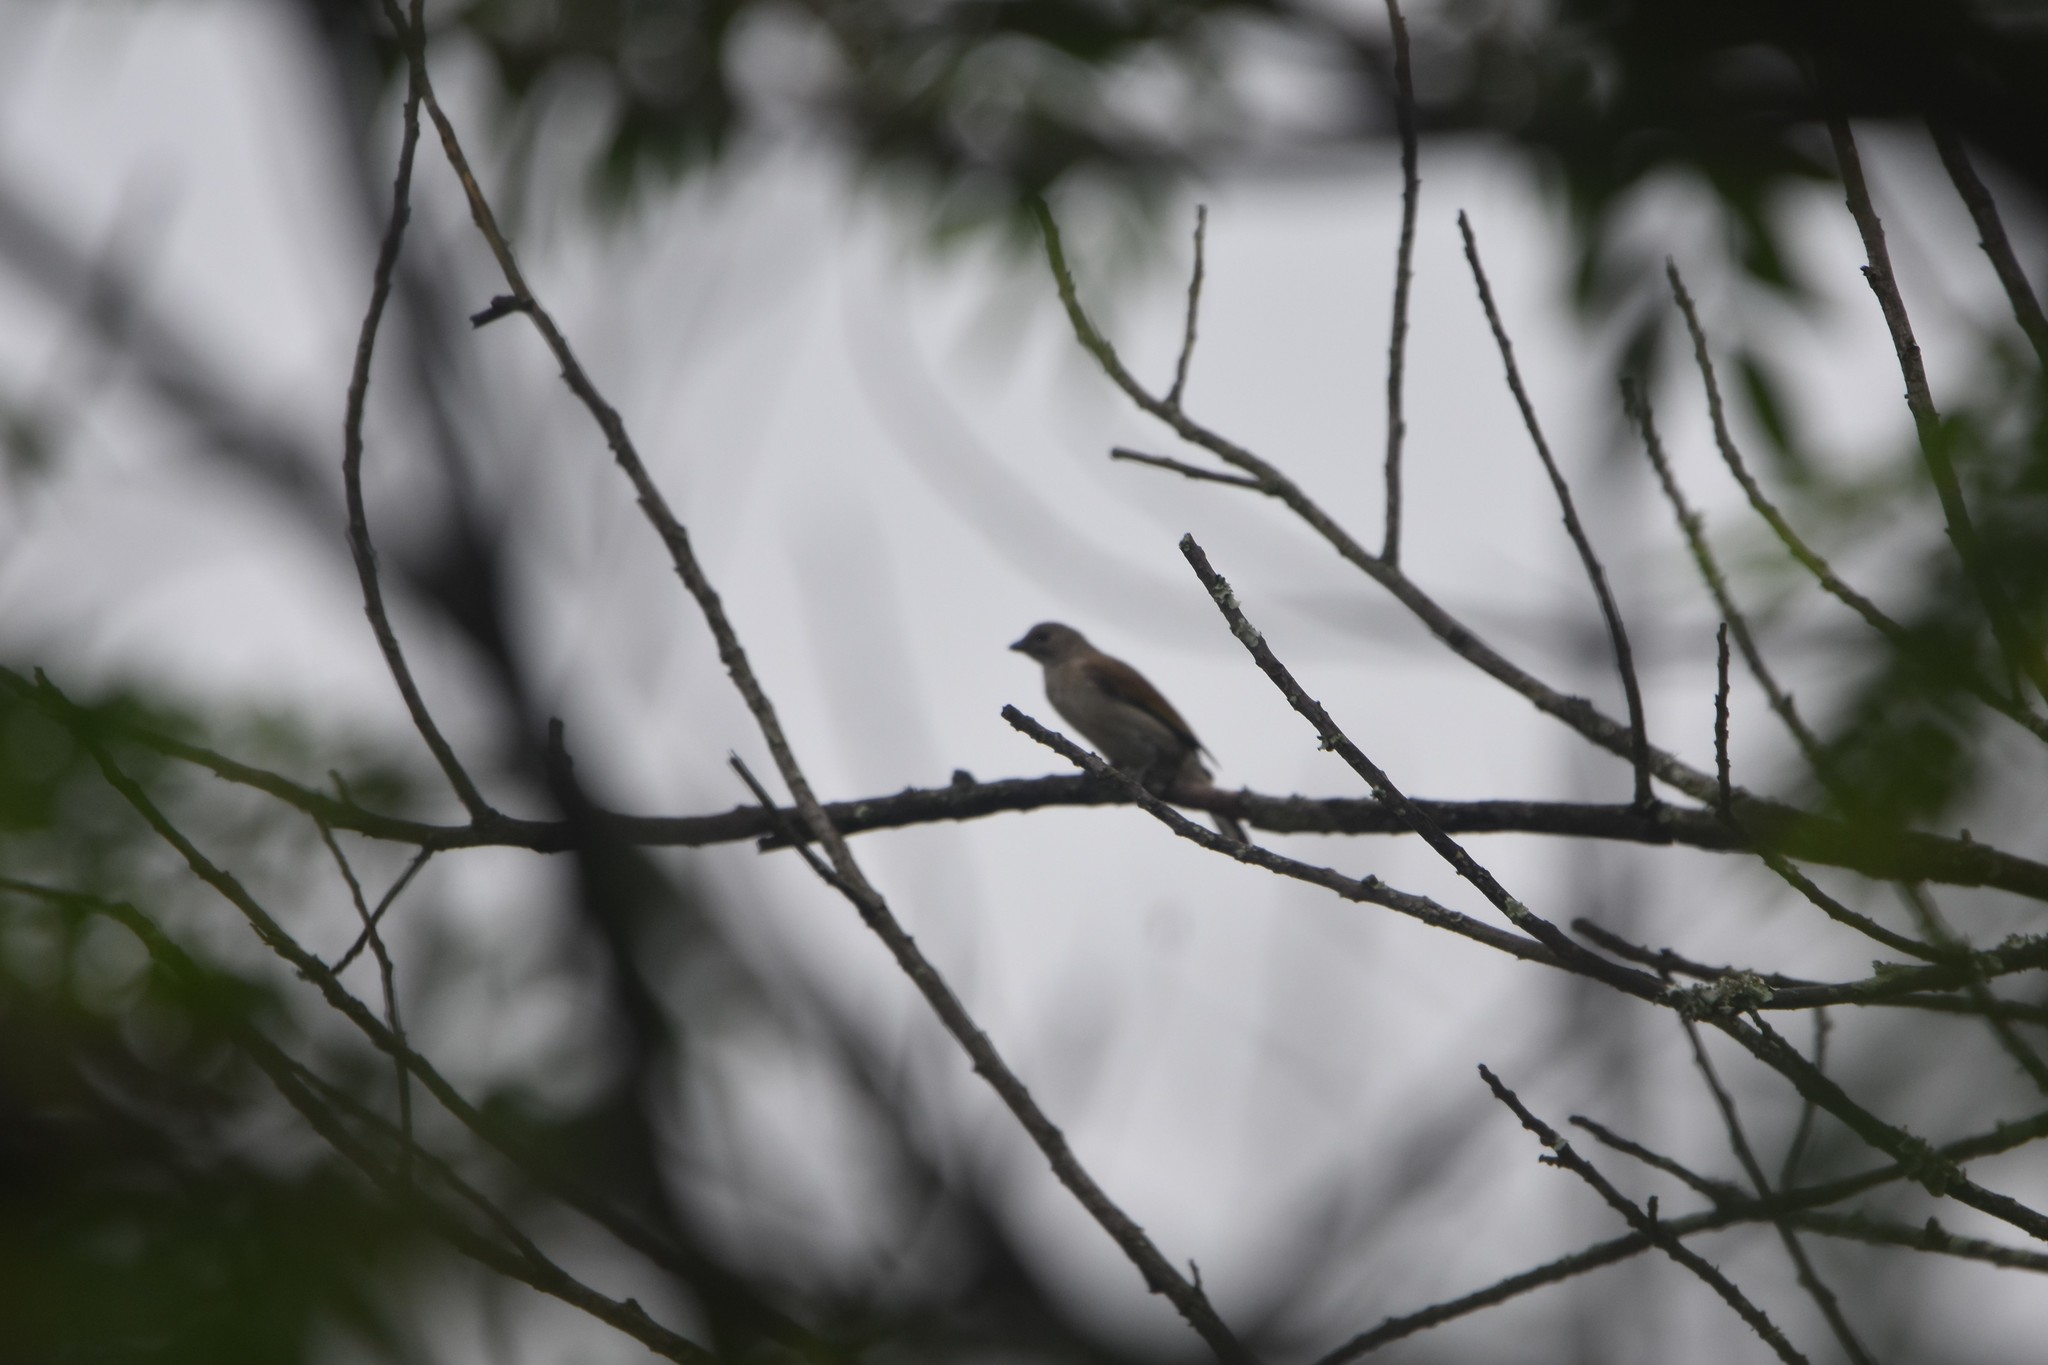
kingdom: Animalia
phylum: Chordata
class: Aves
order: Piciformes
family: Indicatoridae
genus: Indicator
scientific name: Indicator minor
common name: Lesser honeyguide
